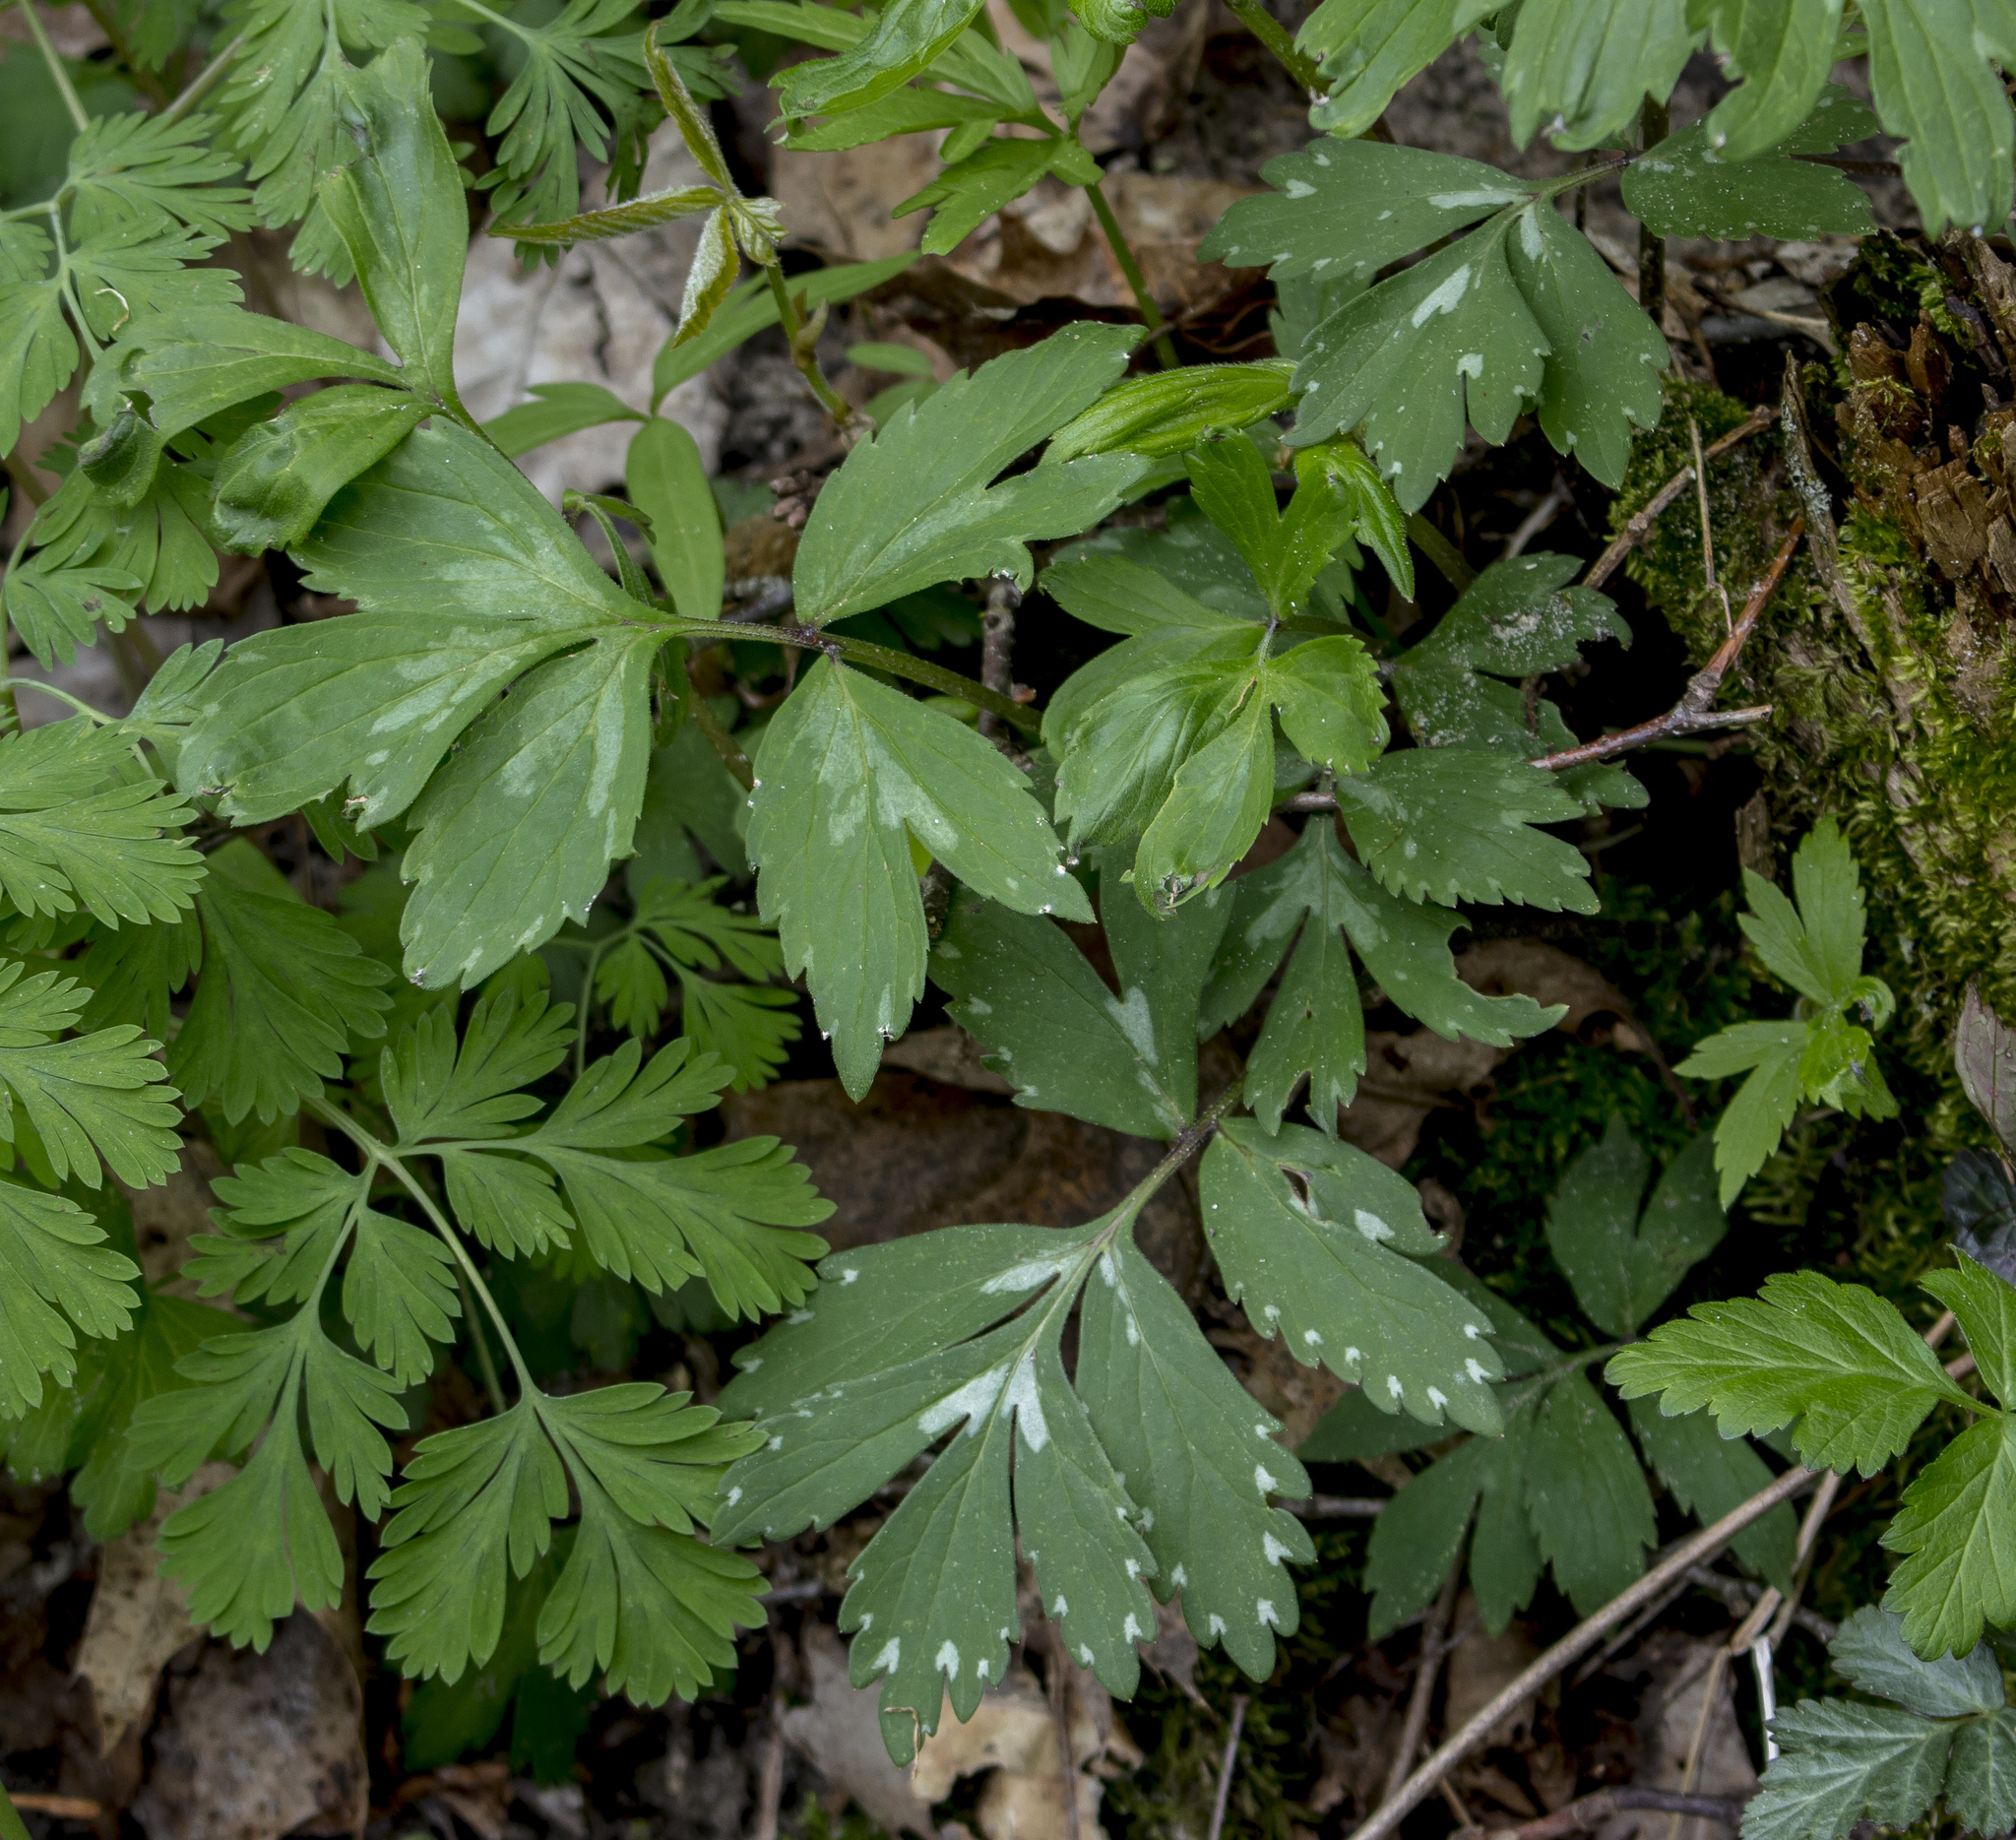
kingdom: Plantae
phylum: Tracheophyta
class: Magnoliopsida
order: Boraginales
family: Hydrophyllaceae
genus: Hydrophyllum
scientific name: Hydrophyllum virginianum
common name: Virginia waterleaf
